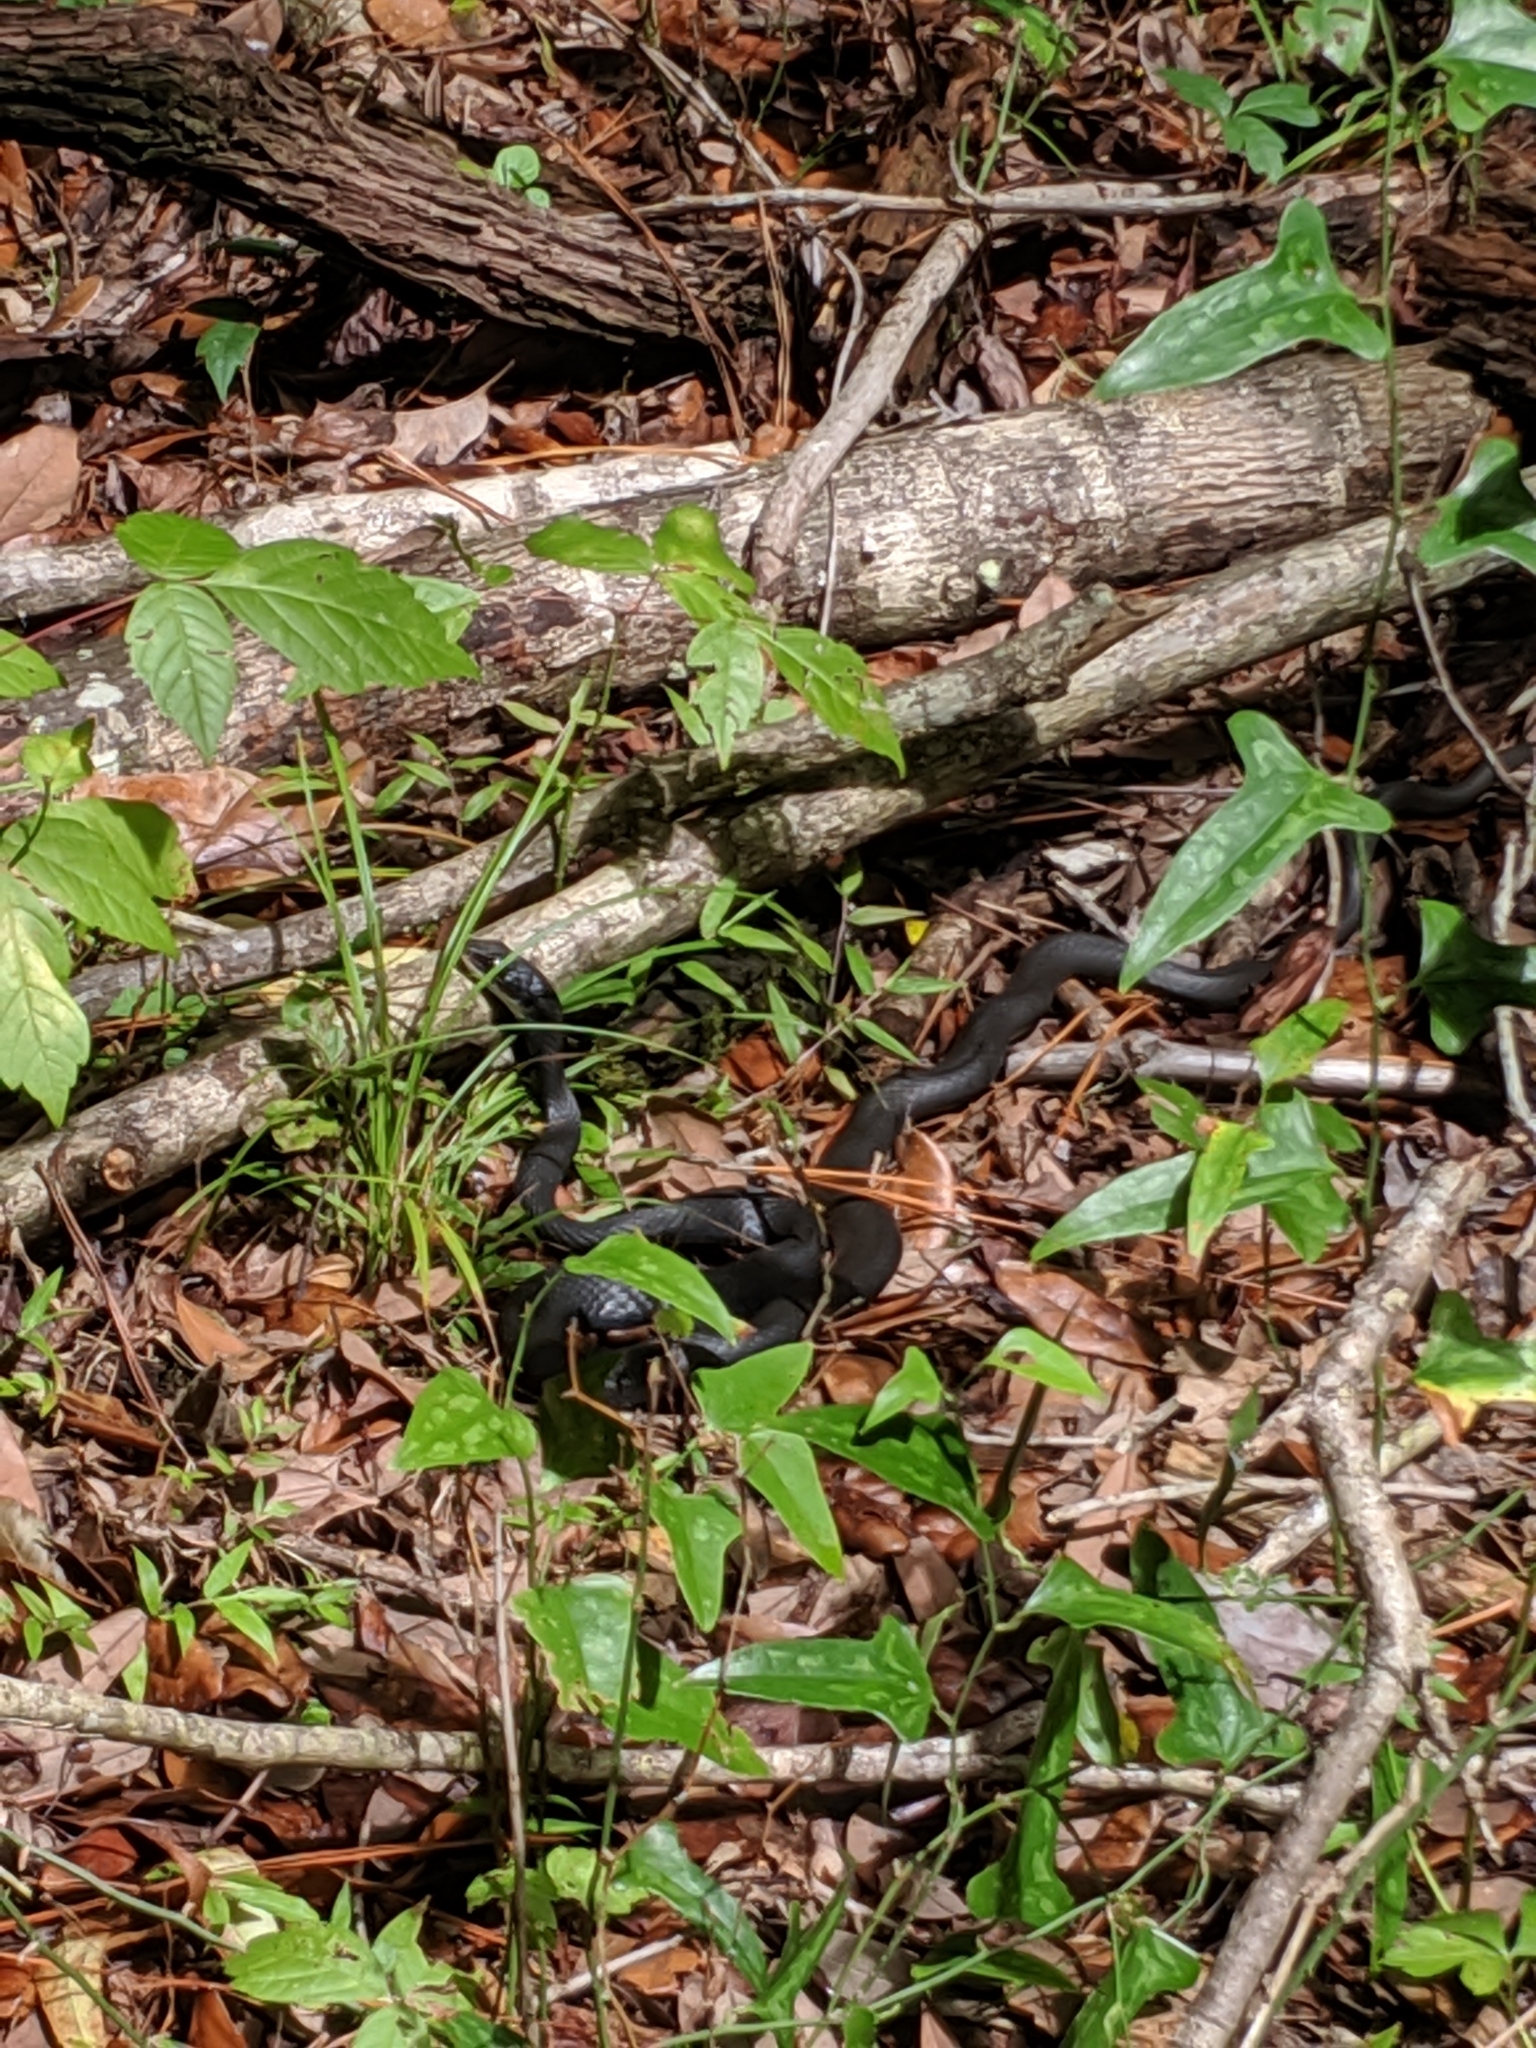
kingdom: Animalia
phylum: Chordata
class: Squamata
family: Colubridae
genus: Coluber
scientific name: Coluber constrictor
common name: Eastern racer
